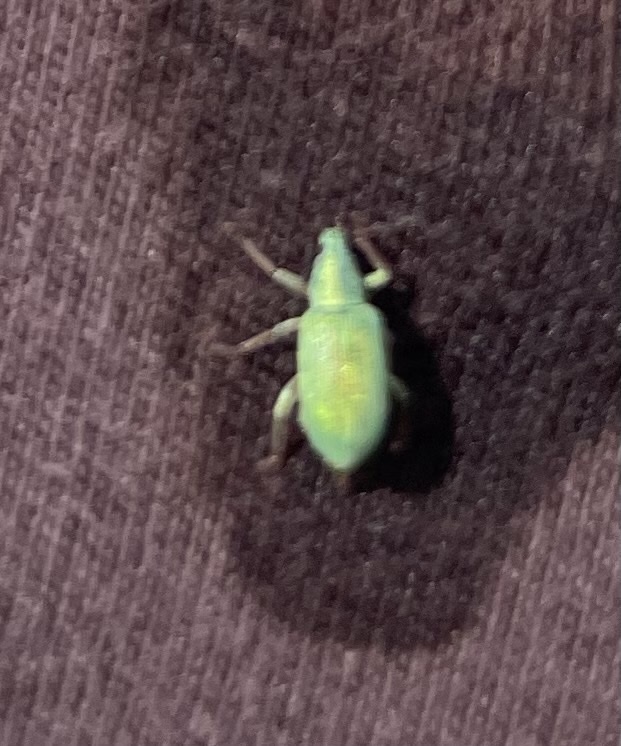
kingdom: Animalia
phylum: Arthropoda
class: Insecta
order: Coleoptera
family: Curculionidae
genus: Polydrusus
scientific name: Polydrusus formosus
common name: Weevil
